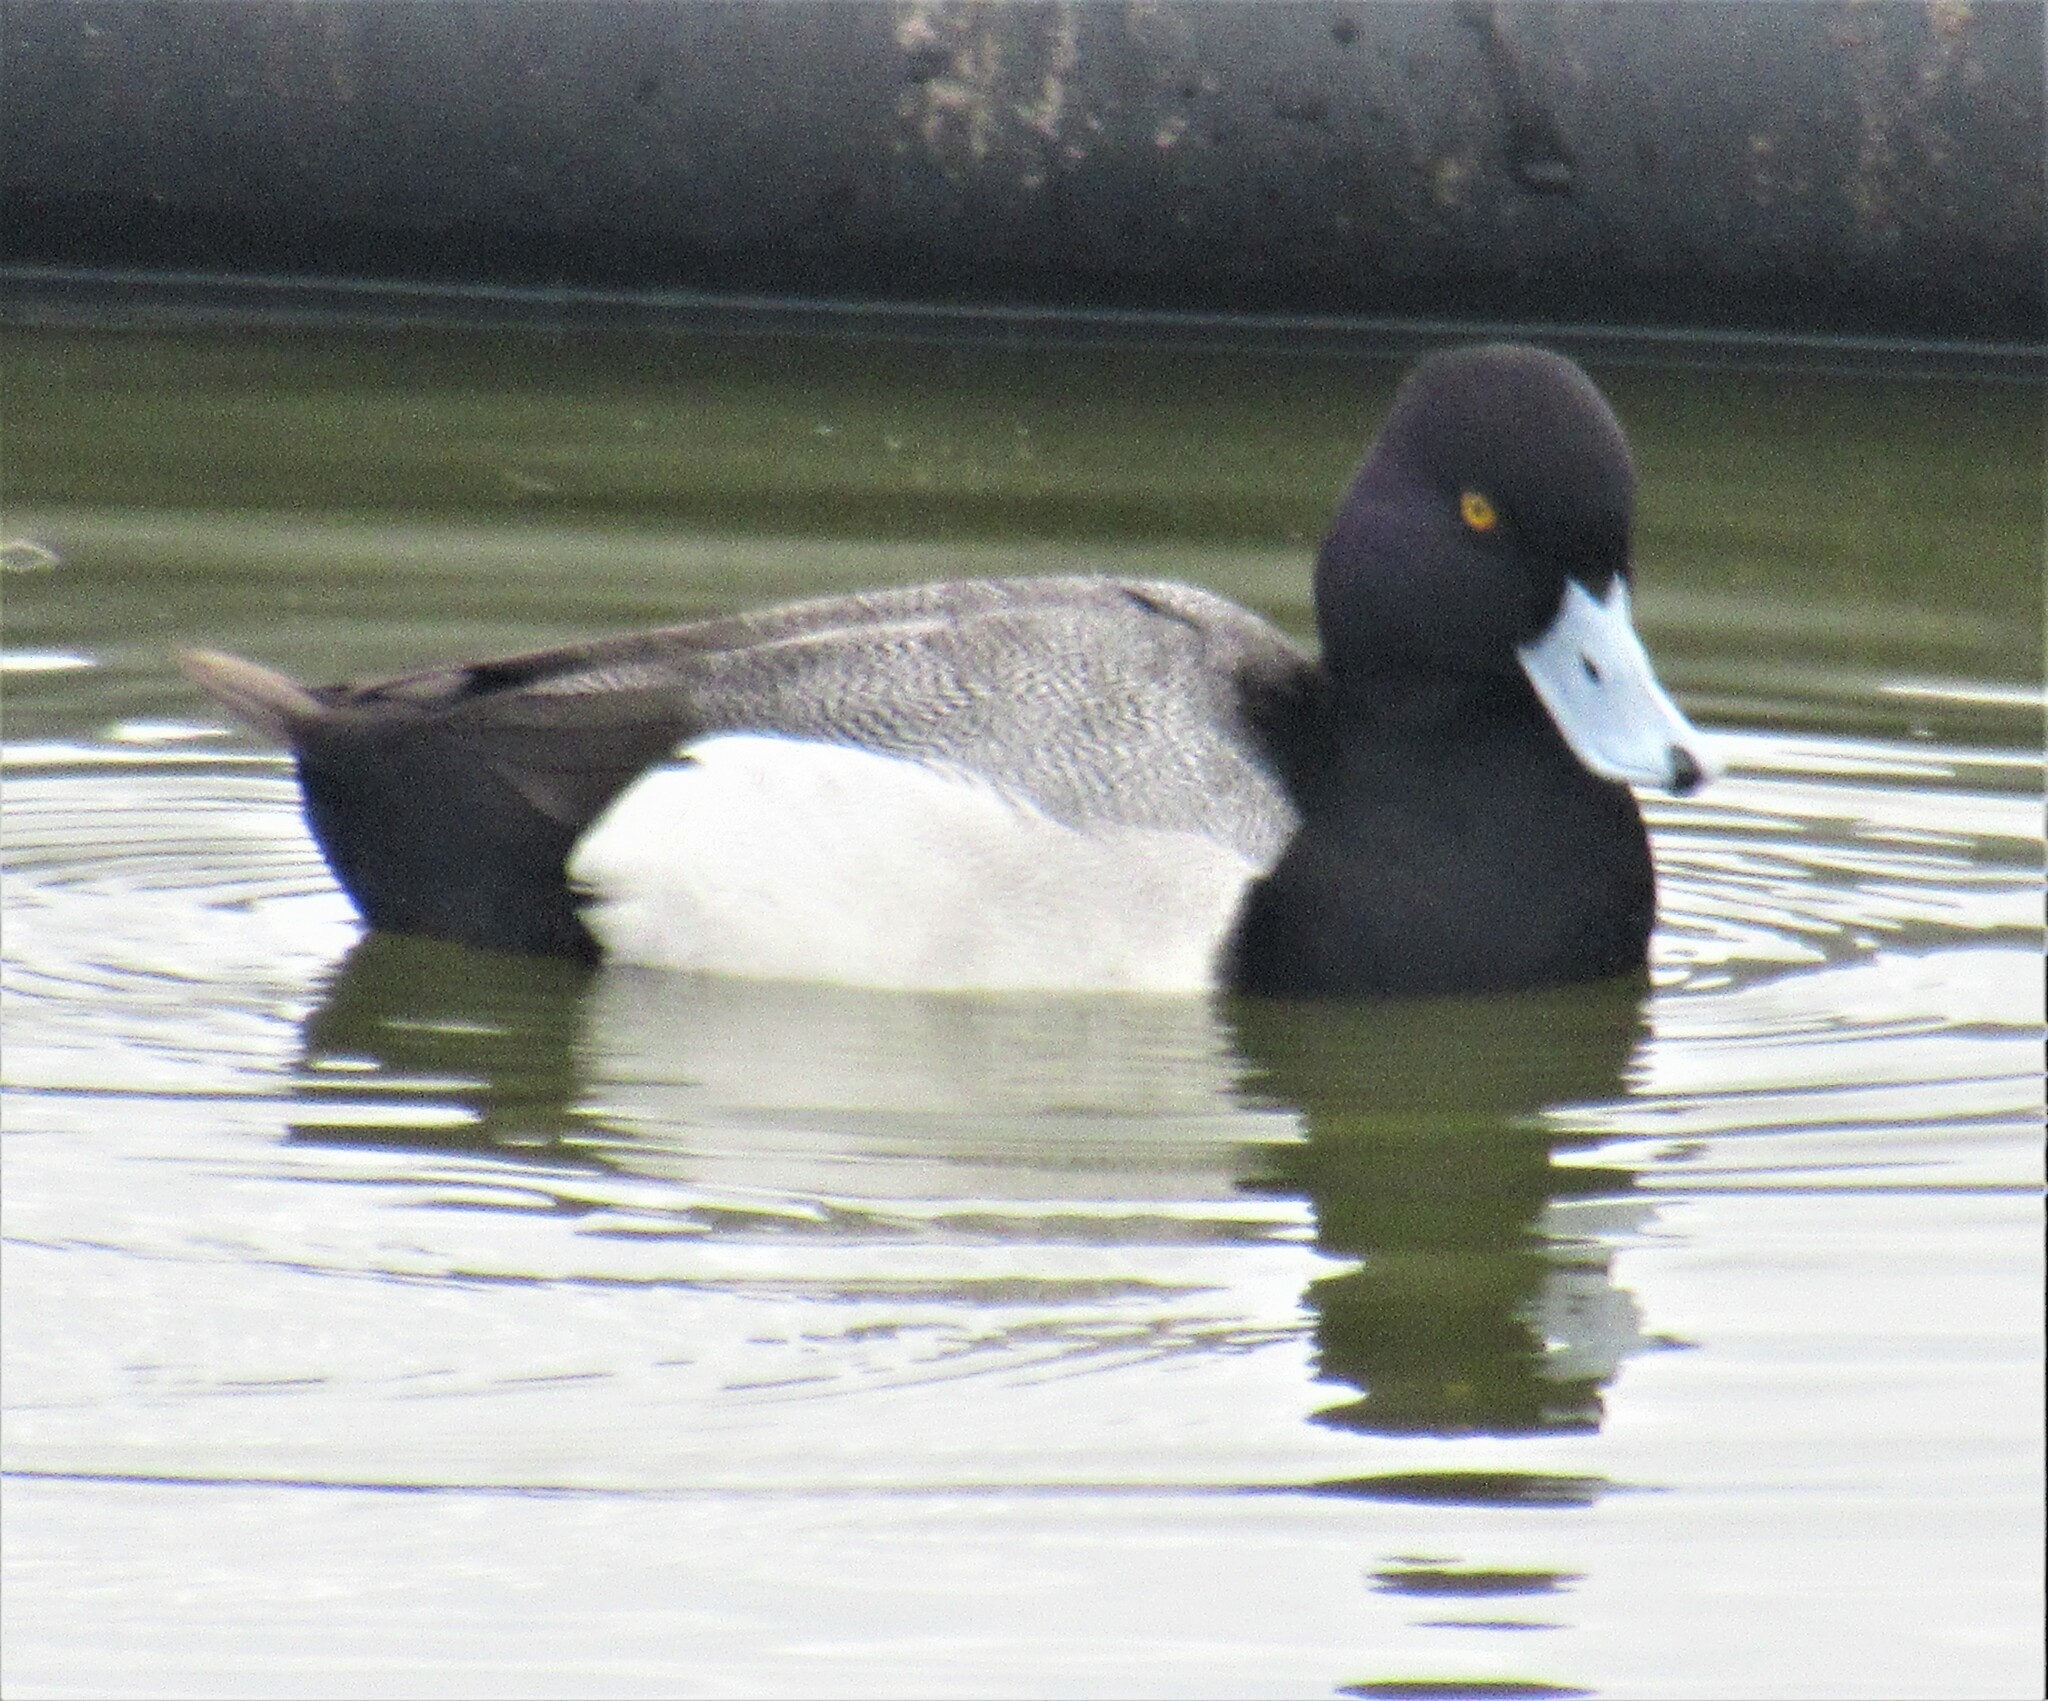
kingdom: Animalia
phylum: Chordata
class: Aves
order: Anseriformes
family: Anatidae
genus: Aythya
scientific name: Aythya affinis
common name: Lesser scaup
